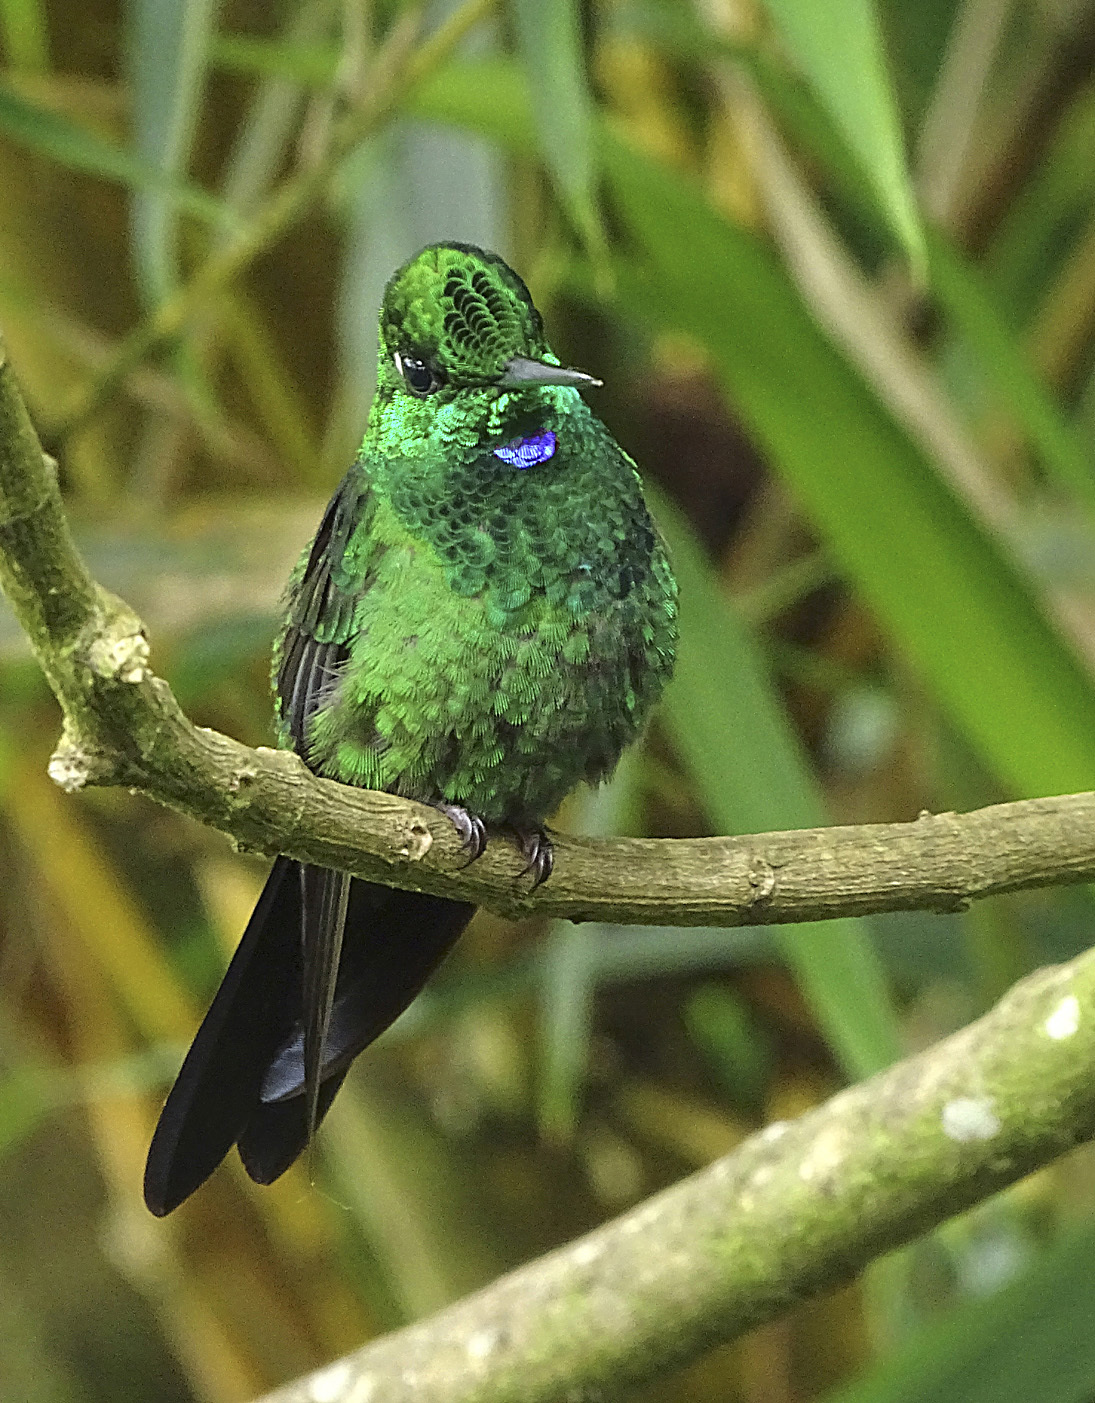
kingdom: Animalia
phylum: Chordata
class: Aves
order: Apodiformes
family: Trochilidae
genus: Heliodoxa
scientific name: Heliodoxa jacula
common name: Green-crowned brilliant
